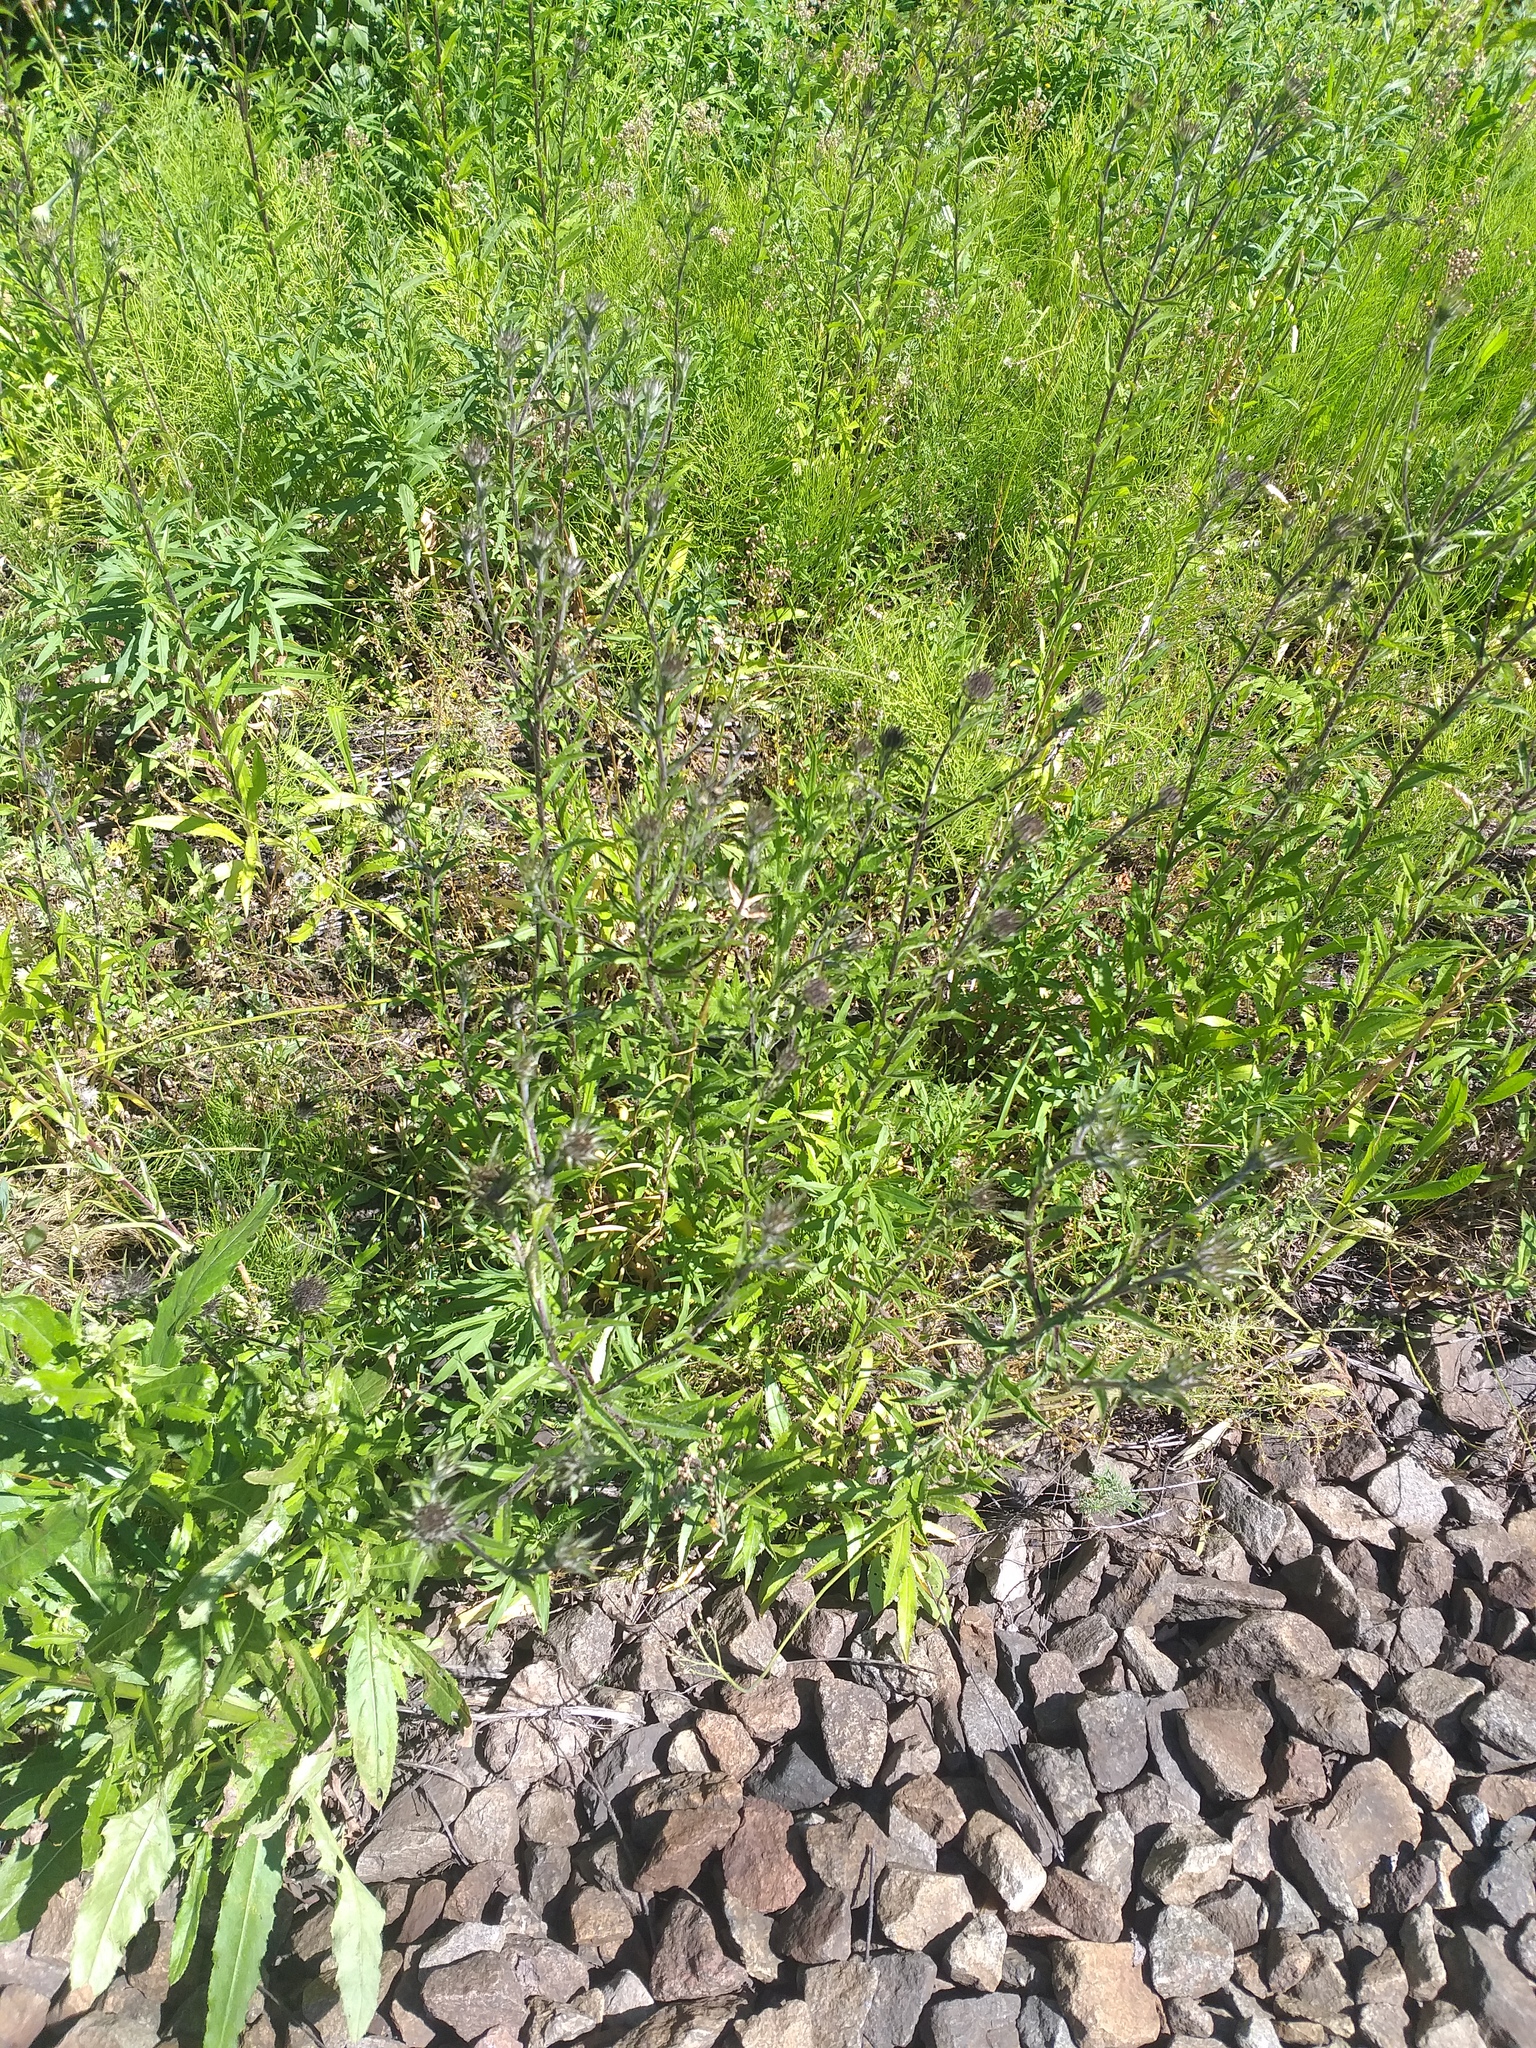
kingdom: Plantae
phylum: Tracheophyta
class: Magnoliopsida
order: Asterales
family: Asteraceae
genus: Carlina
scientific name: Carlina biebersteinii
